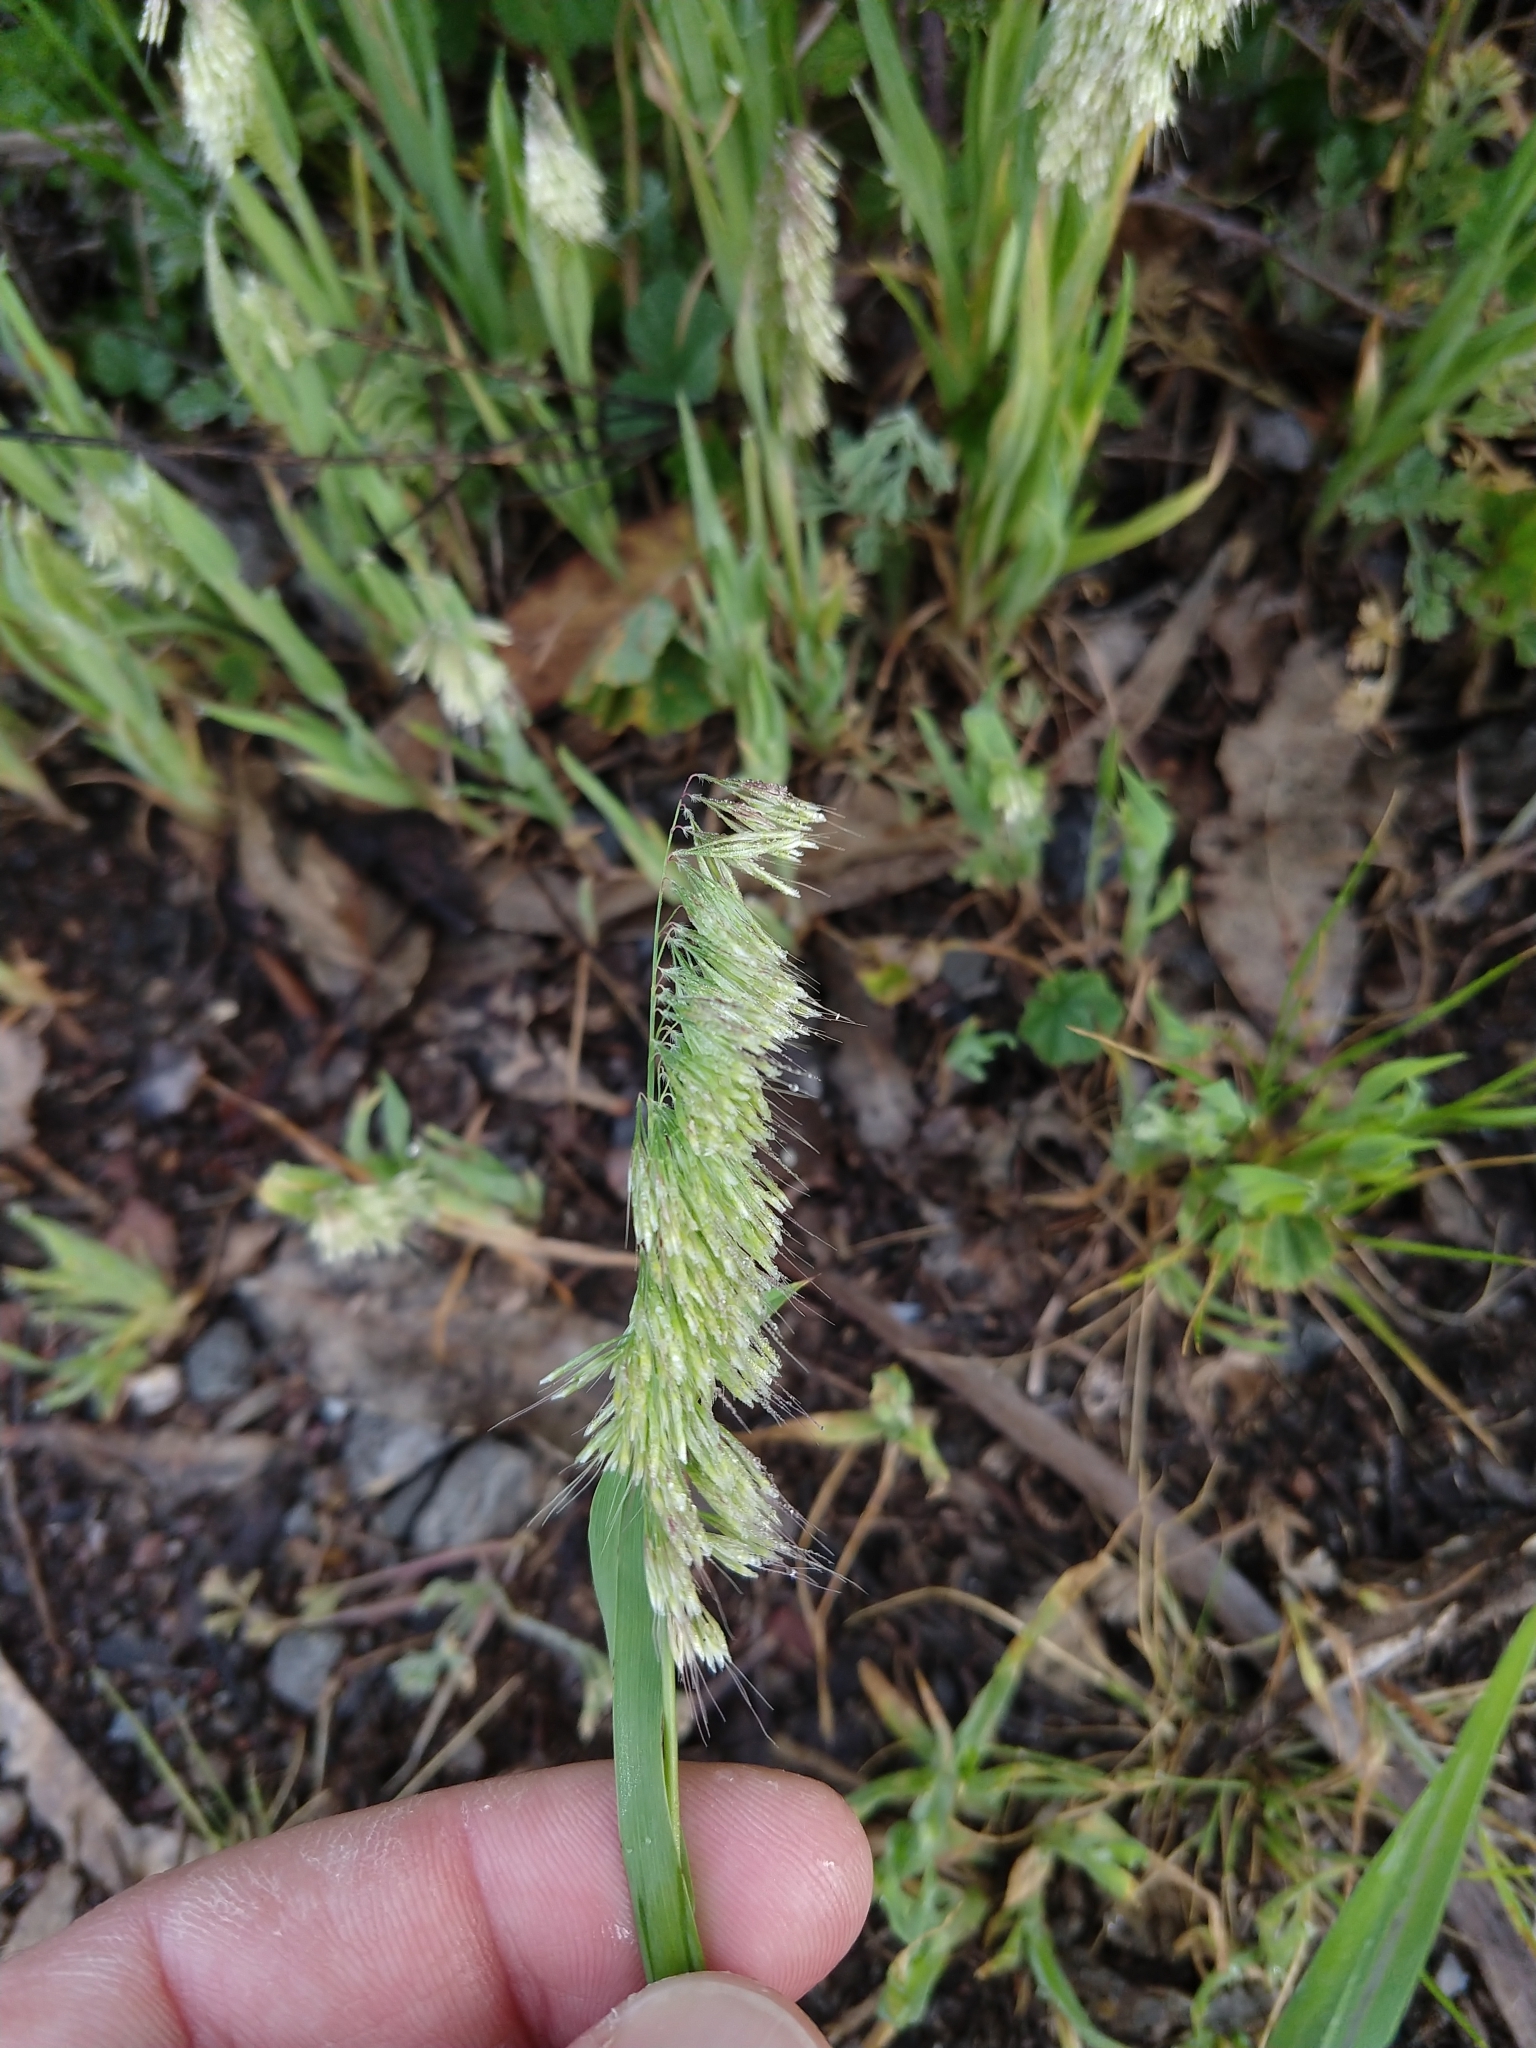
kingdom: Plantae
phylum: Tracheophyta
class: Liliopsida
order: Poales
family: Poaceae
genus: Lamarckia
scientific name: Lamarckia aurea
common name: Golden dog's-tail
